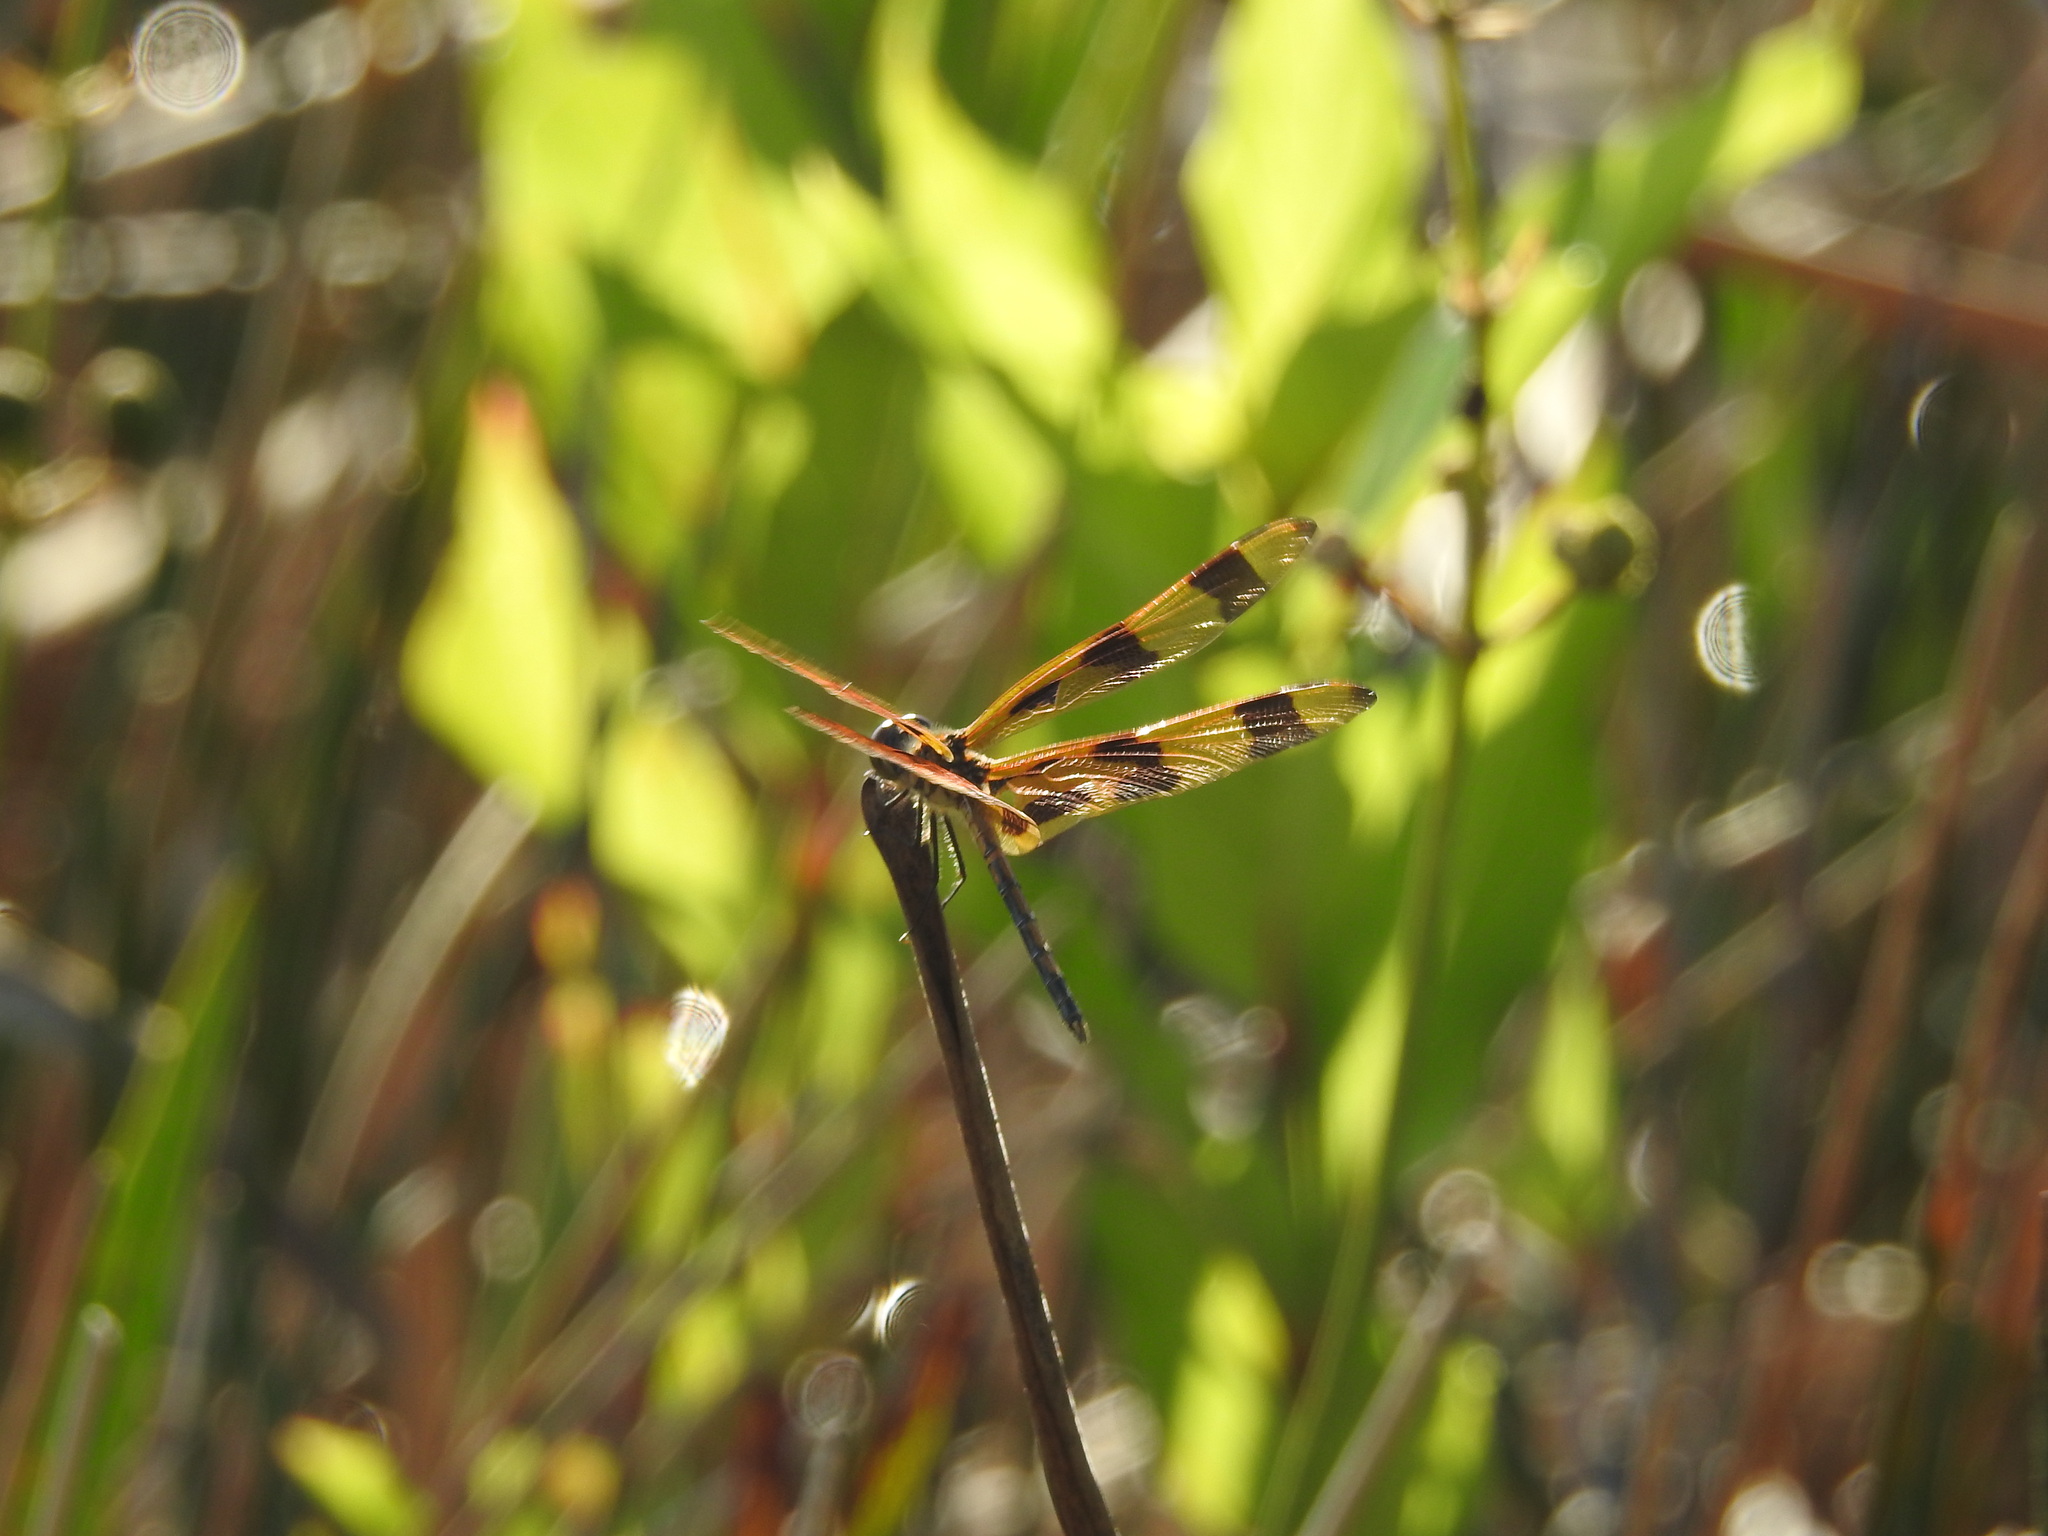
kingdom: Animalia
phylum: Arthropoda
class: Insecta
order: Odonata
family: Libellulidae
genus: Celithemis
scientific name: Celithemis eponina
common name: Halloween pennant
